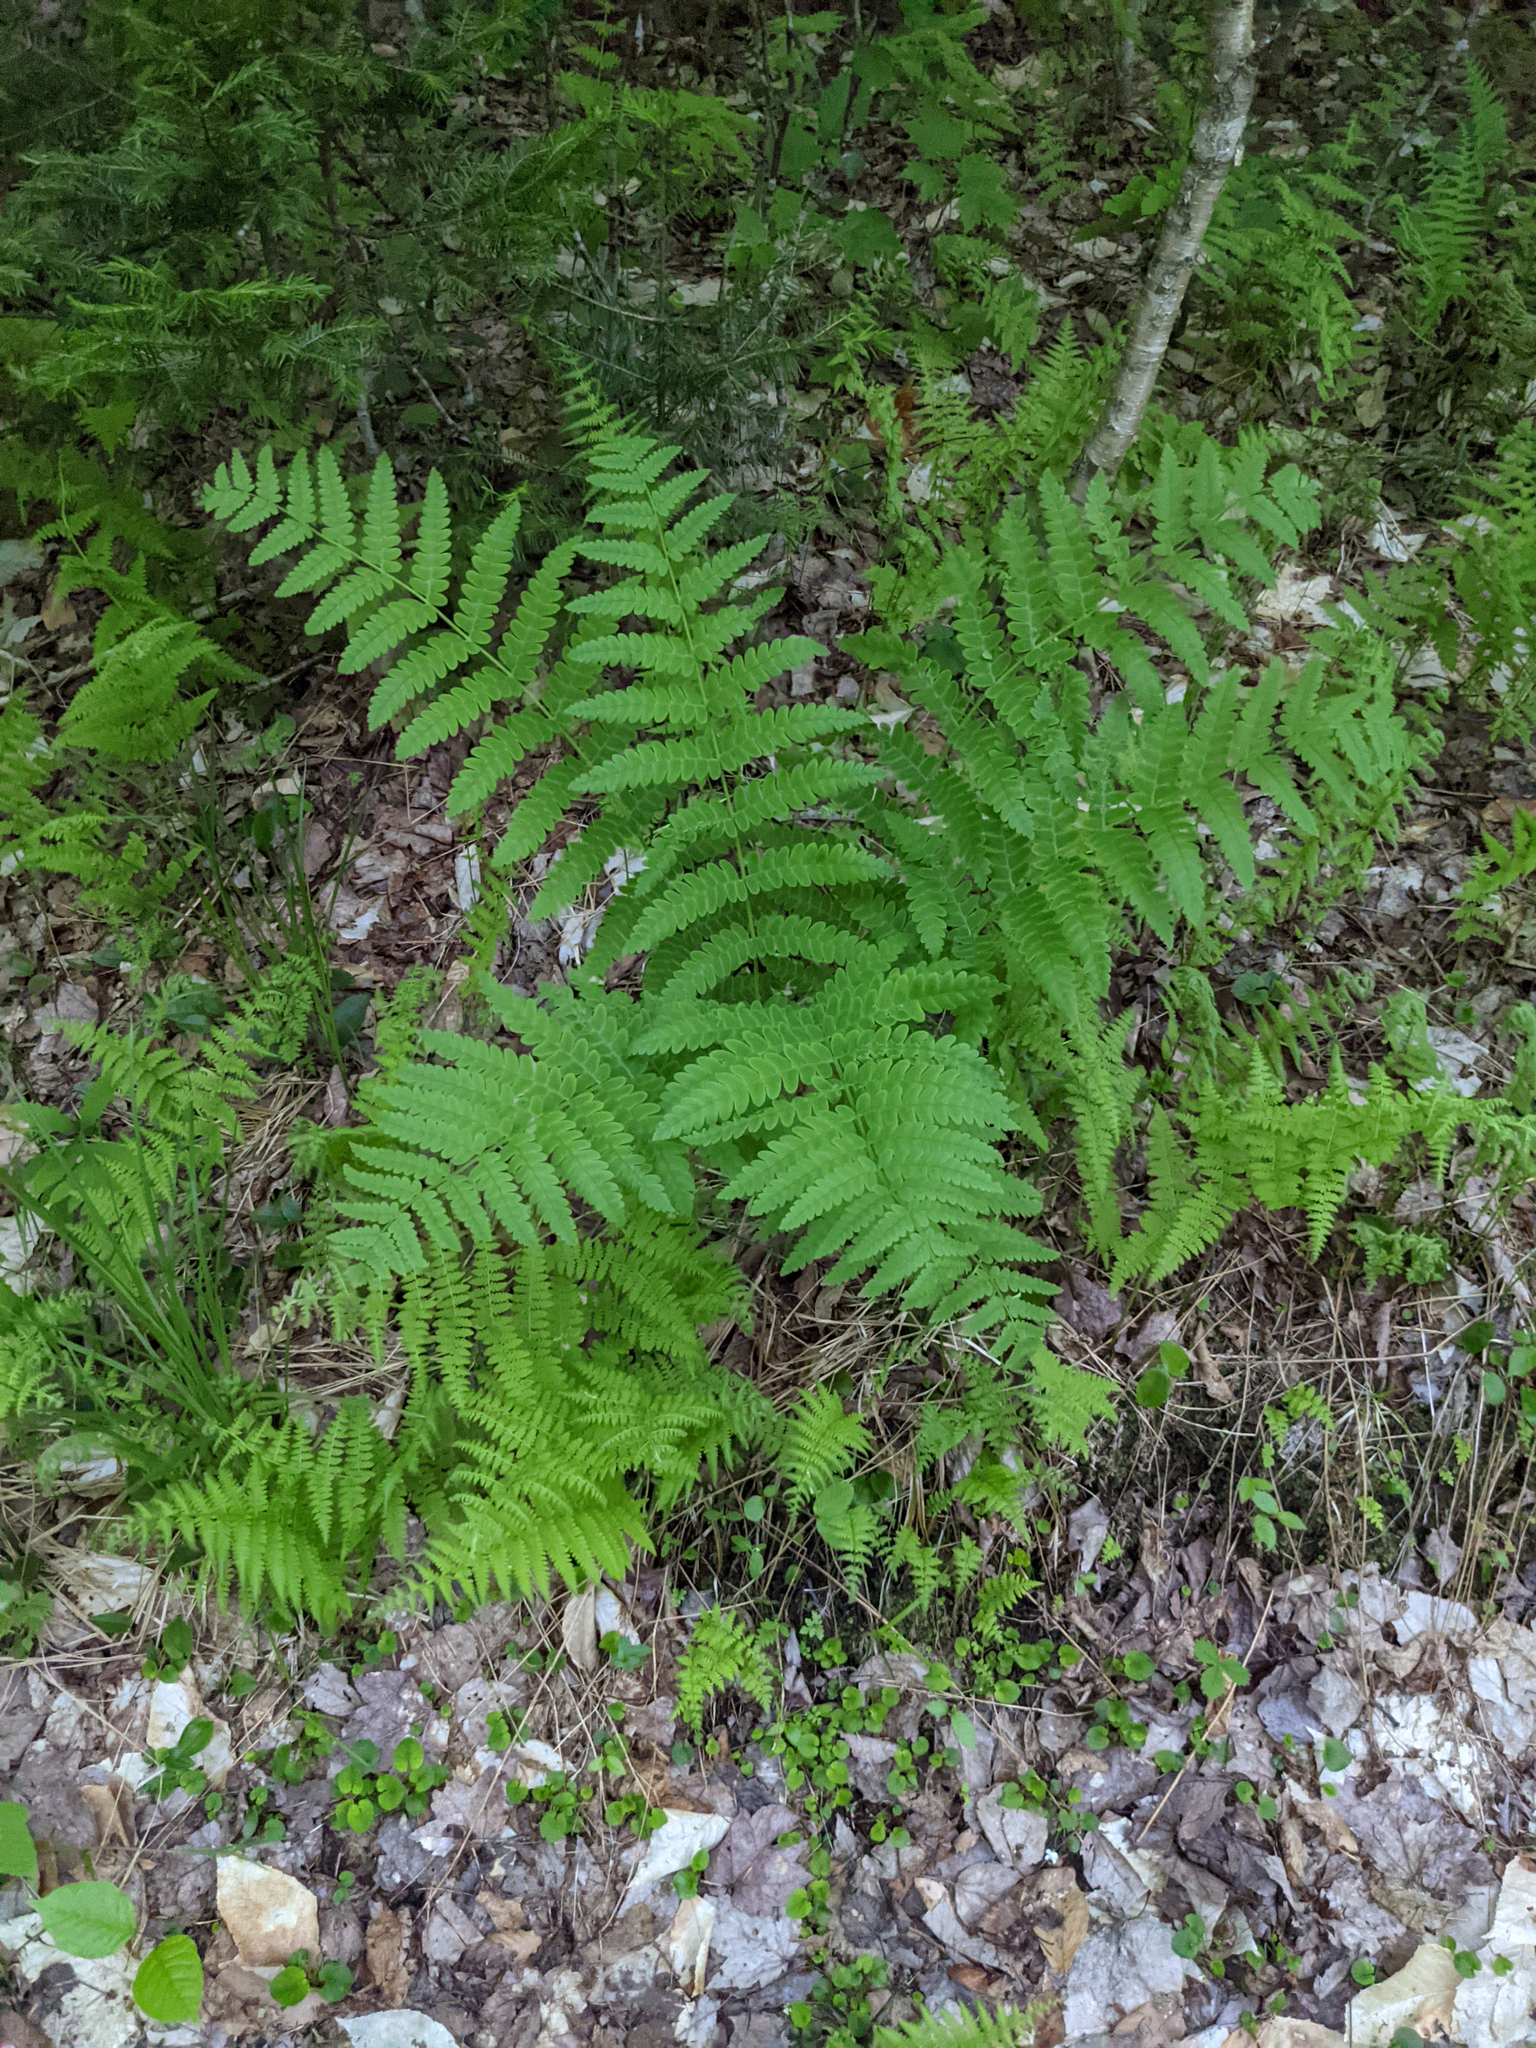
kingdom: Plantae
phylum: Tracheophyta
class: Polypodiopsida
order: Osmundales
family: Osmundaceae
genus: Claytosmunda
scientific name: Claytosmunda claytoniana
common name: Clayton's fern
